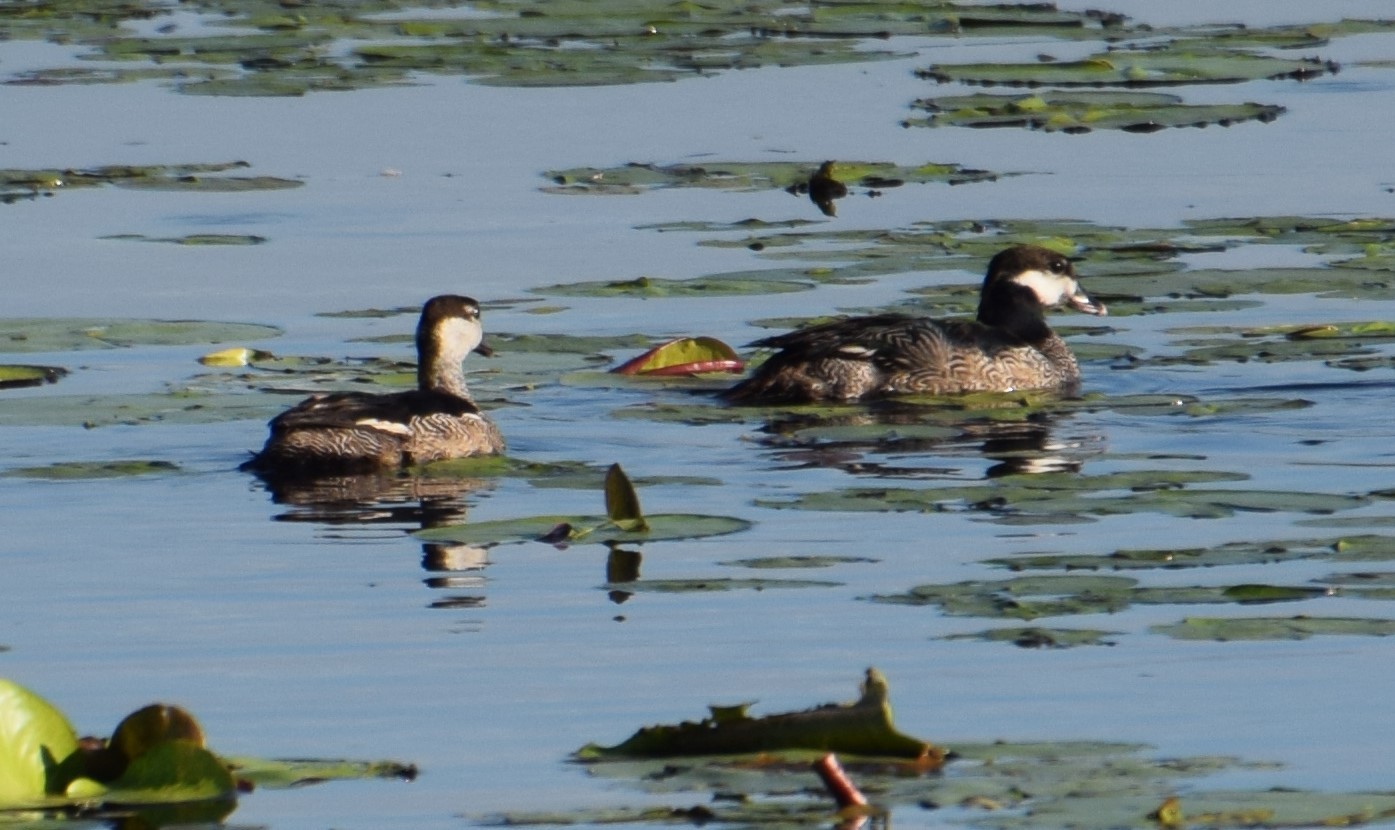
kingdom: Animalia
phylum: Chordata
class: Aves
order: Anseriformes
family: Anatidae
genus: Nettapus
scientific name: Nettapus pulchellus
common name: Green pygmy-goose
